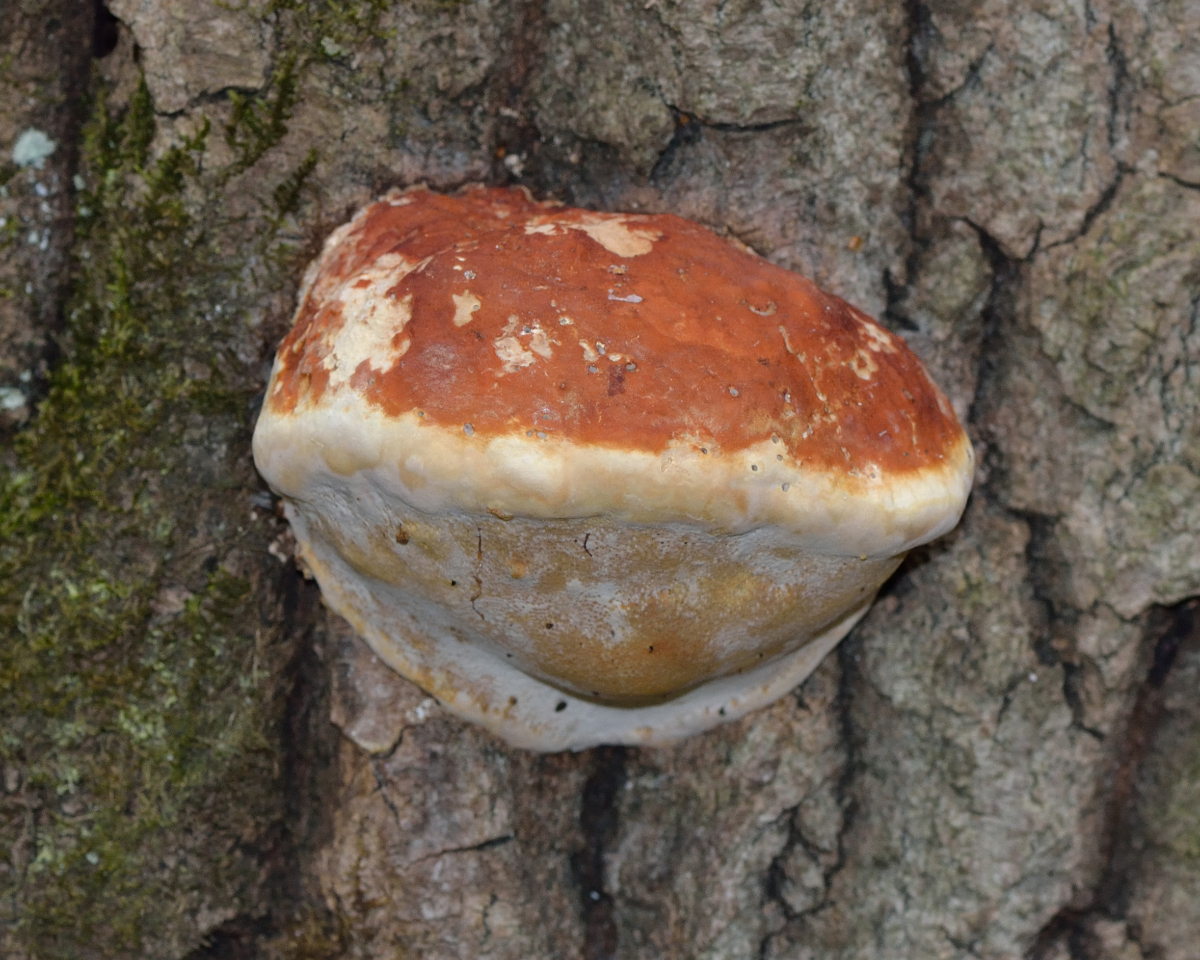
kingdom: Fungi
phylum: Basidiomycota
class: Agaricomycetes
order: Polyporales
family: Fomitopsidaceae
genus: Fomitopsis
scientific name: Fomitopsis pinicola
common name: Red-belted bracket
